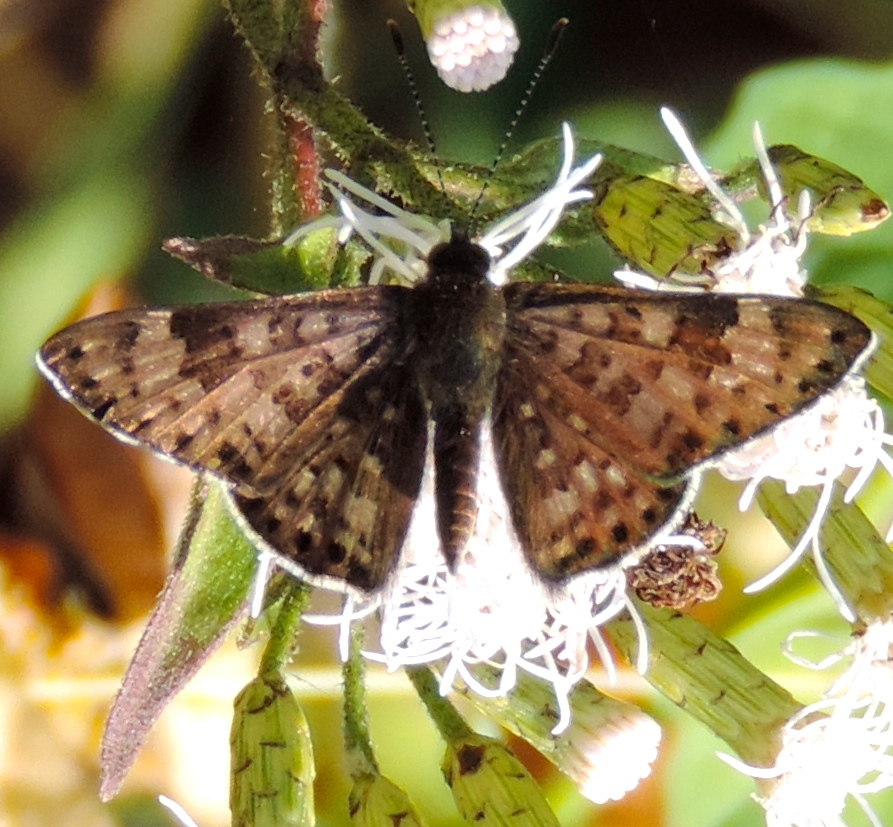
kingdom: Animalia
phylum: Arthropoda
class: Insecta
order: Lepidoptera
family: Riodinidae
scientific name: Riodinidae
